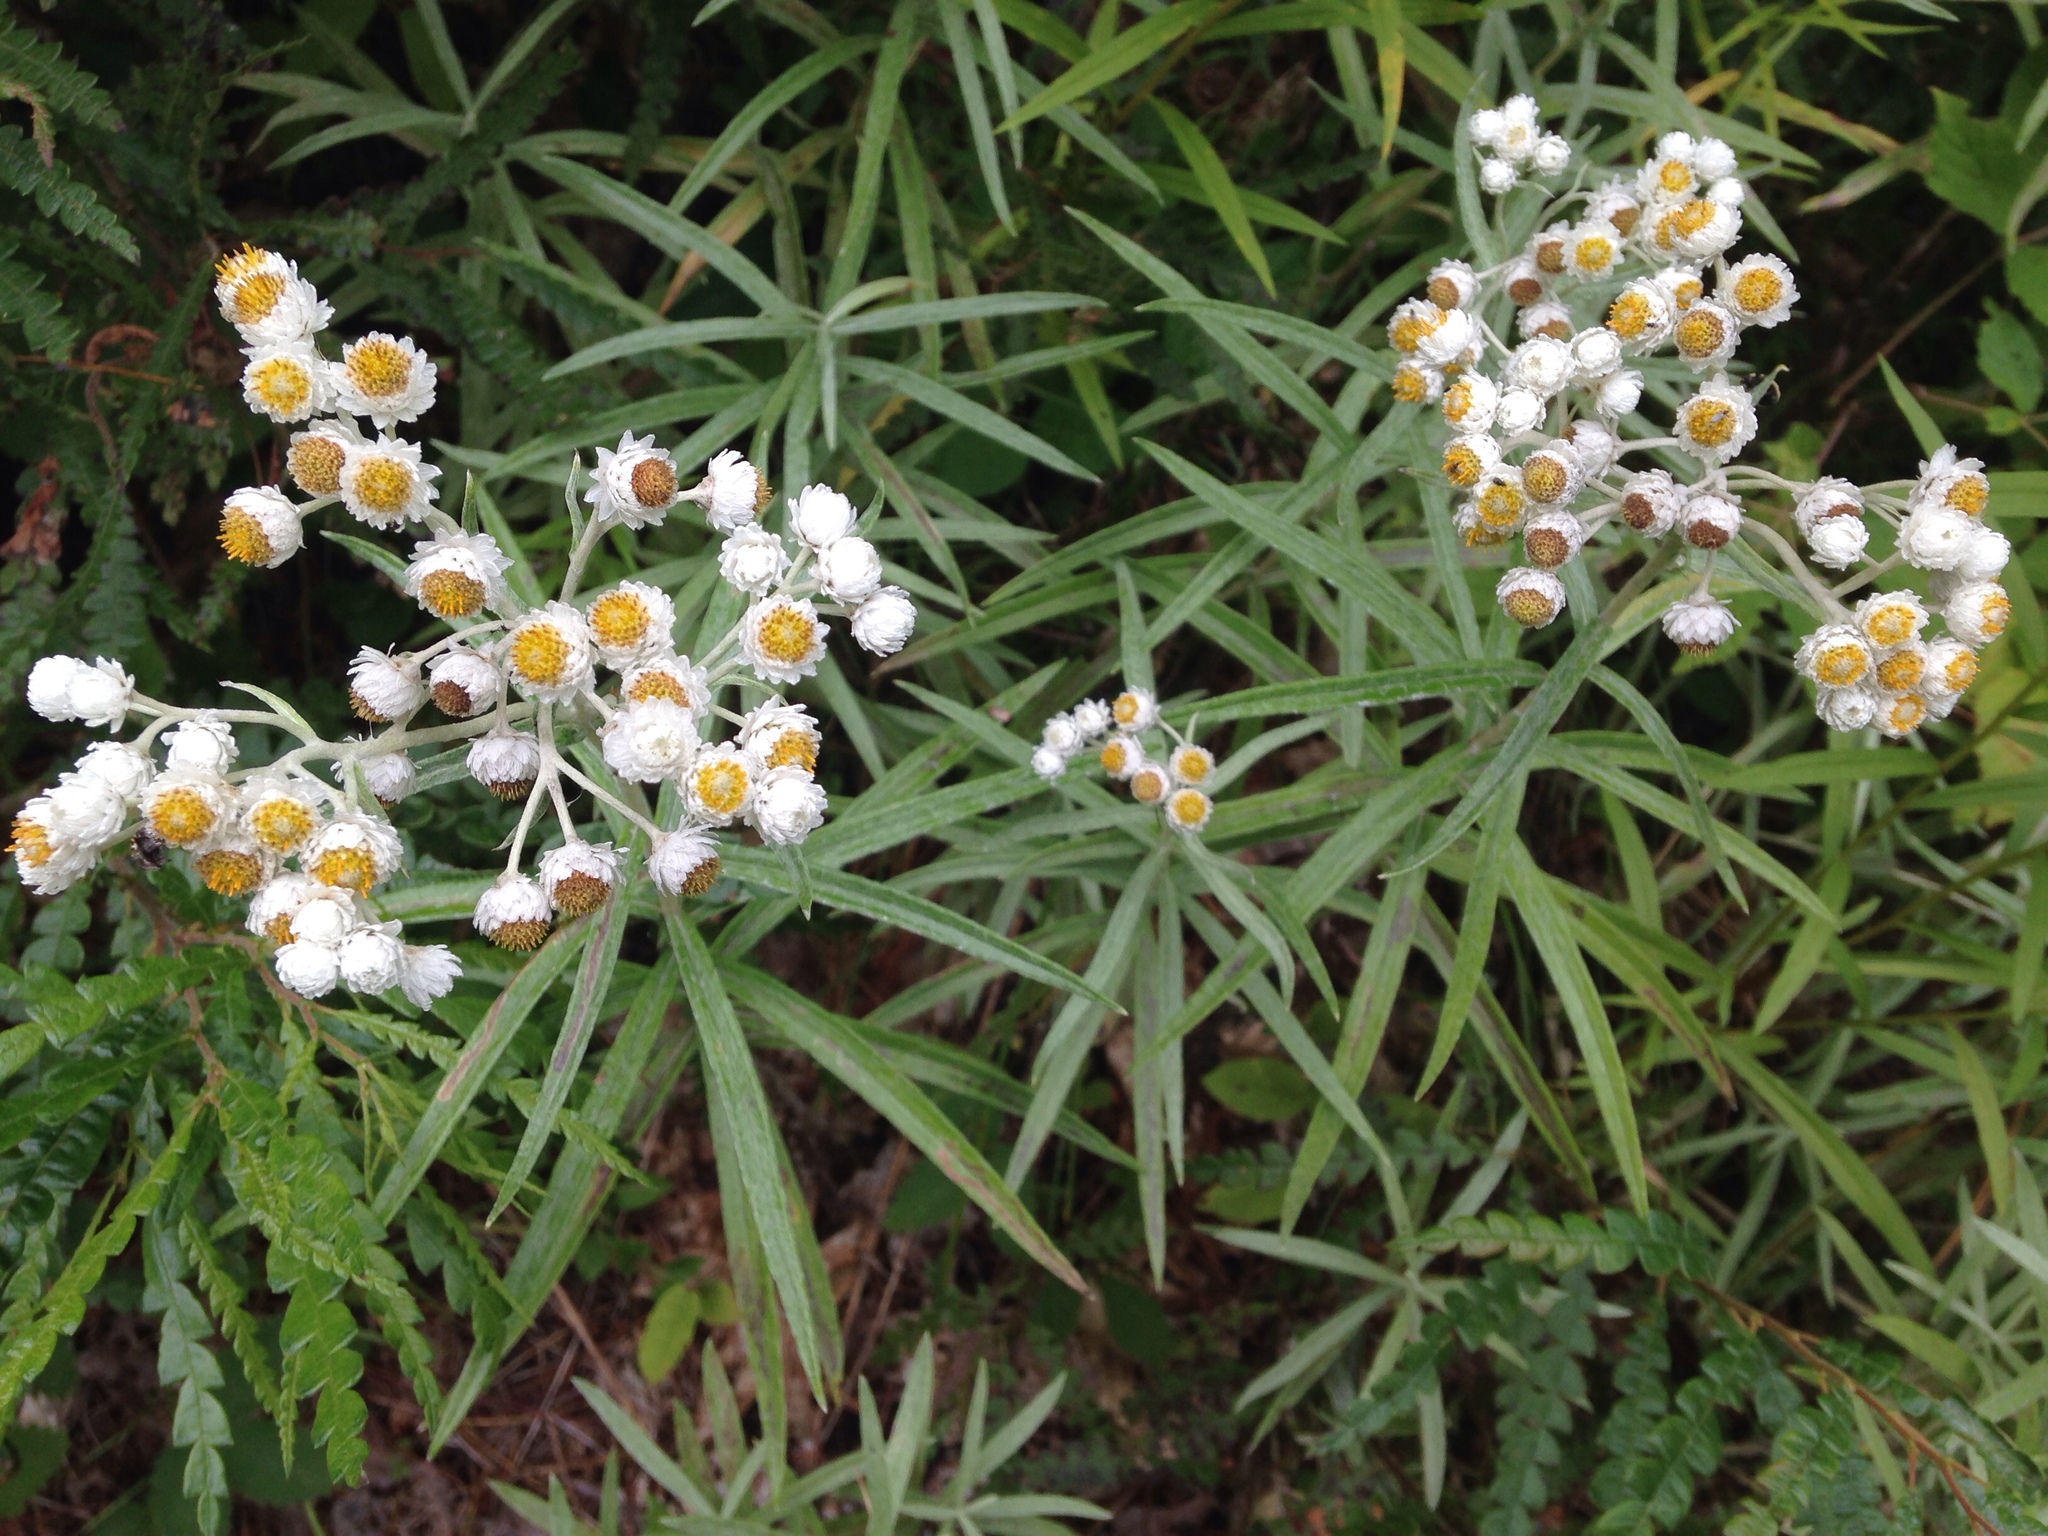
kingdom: Plantae
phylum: Tracheophyta
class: Magnoliopsida
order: Asterales
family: Asteraceae
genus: Anaphalis
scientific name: Anaphalis margaritacea
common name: Pearly everlasting
